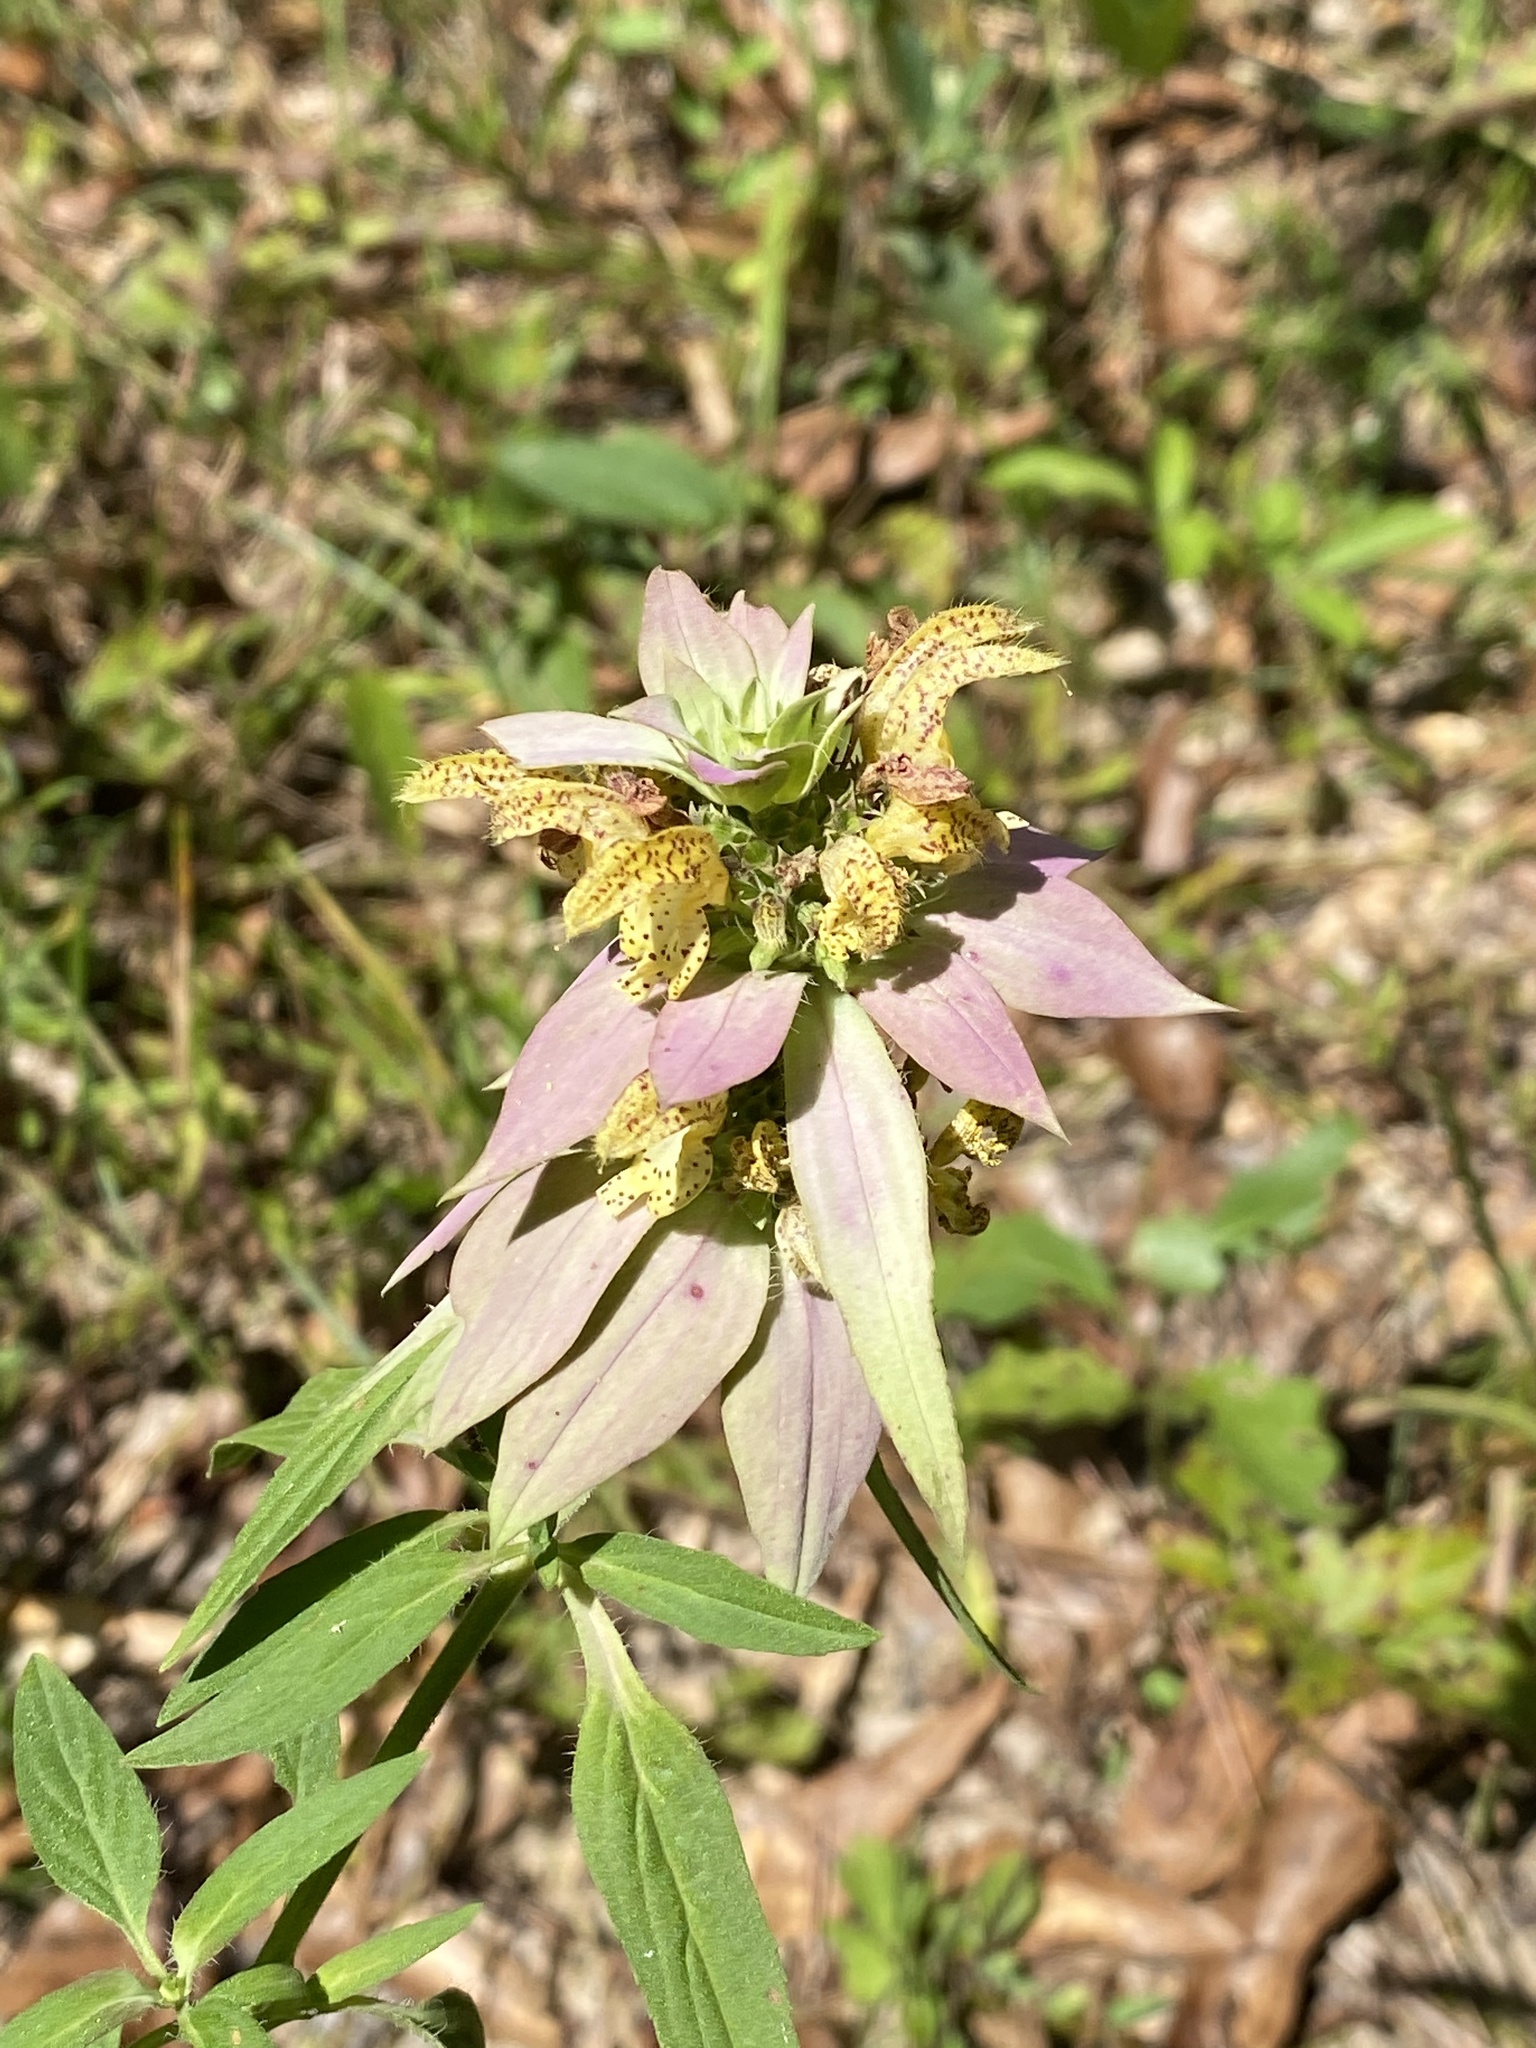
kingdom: Plantae
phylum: Tracheophyta
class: Magnoliopsida
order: Lamiales
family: Lamiaceae
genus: Monarda
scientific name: Monarda punctata
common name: Dotted monarda
